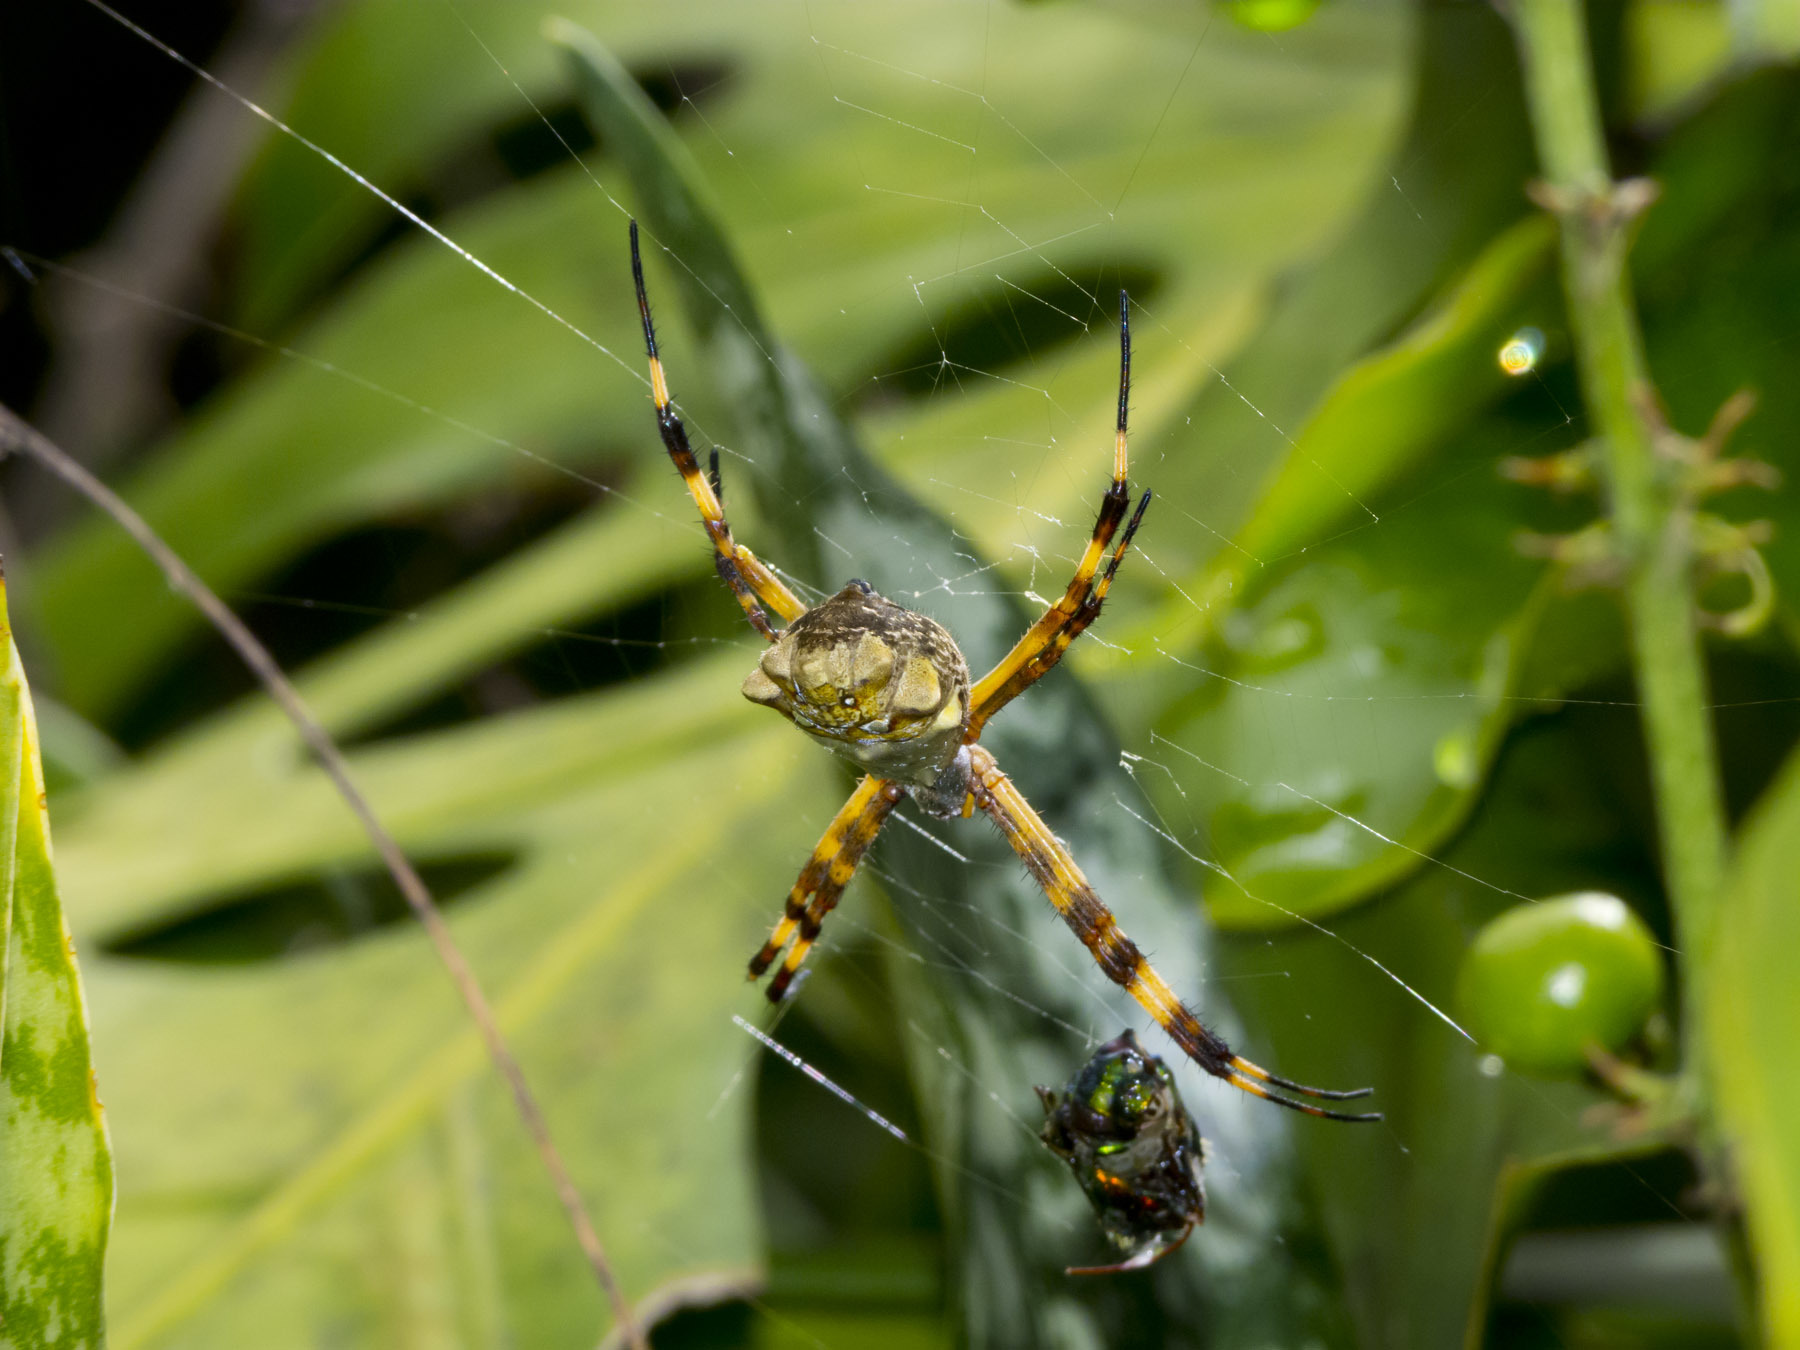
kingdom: Animalia
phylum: Arthropoda
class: Arachnida
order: Araneae
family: Araneidae
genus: Argiope
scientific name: Argiope argentata
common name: Orb weavers
